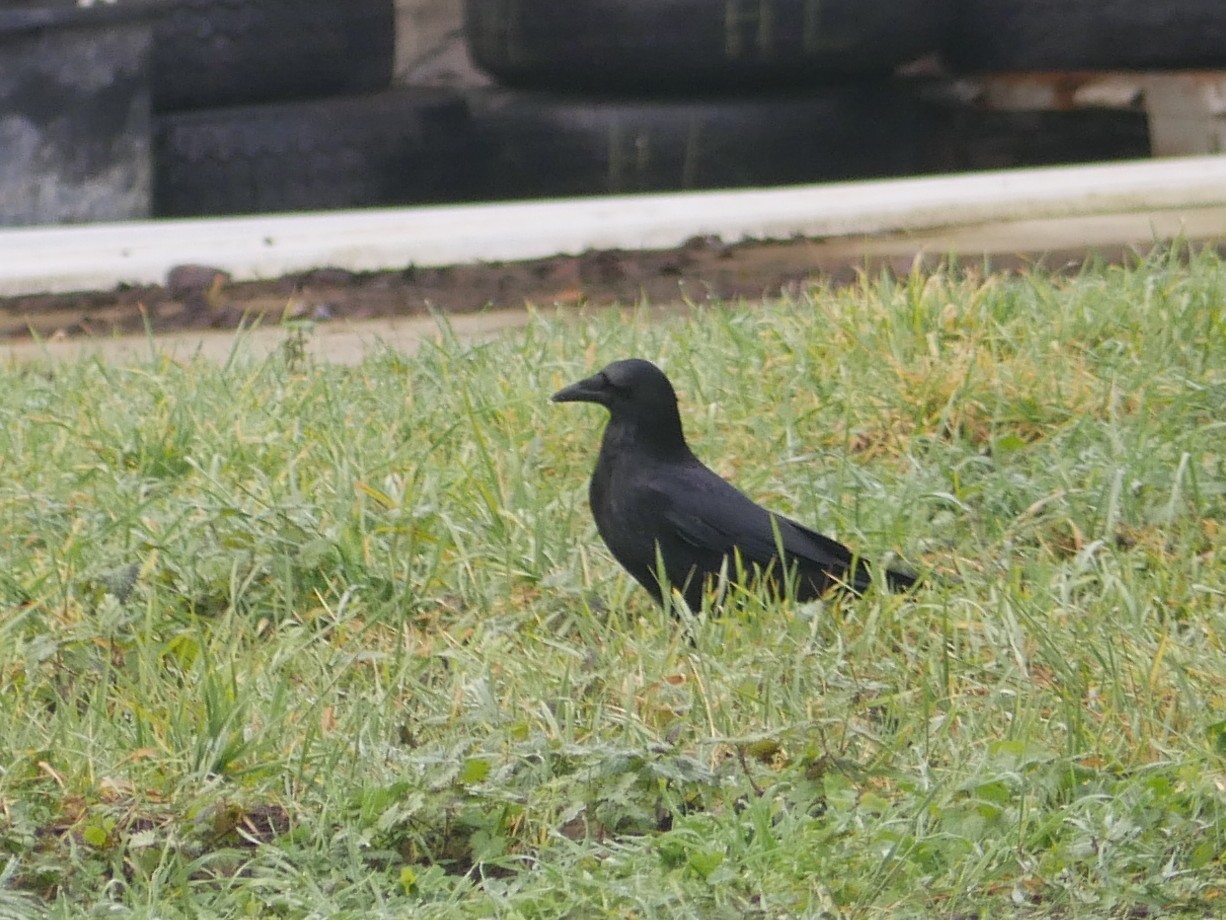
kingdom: Animalia
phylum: Chordata
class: Aves
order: Passeriformes
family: Corvidae
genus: Corvus
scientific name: Corvus corone
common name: Carrion crow
